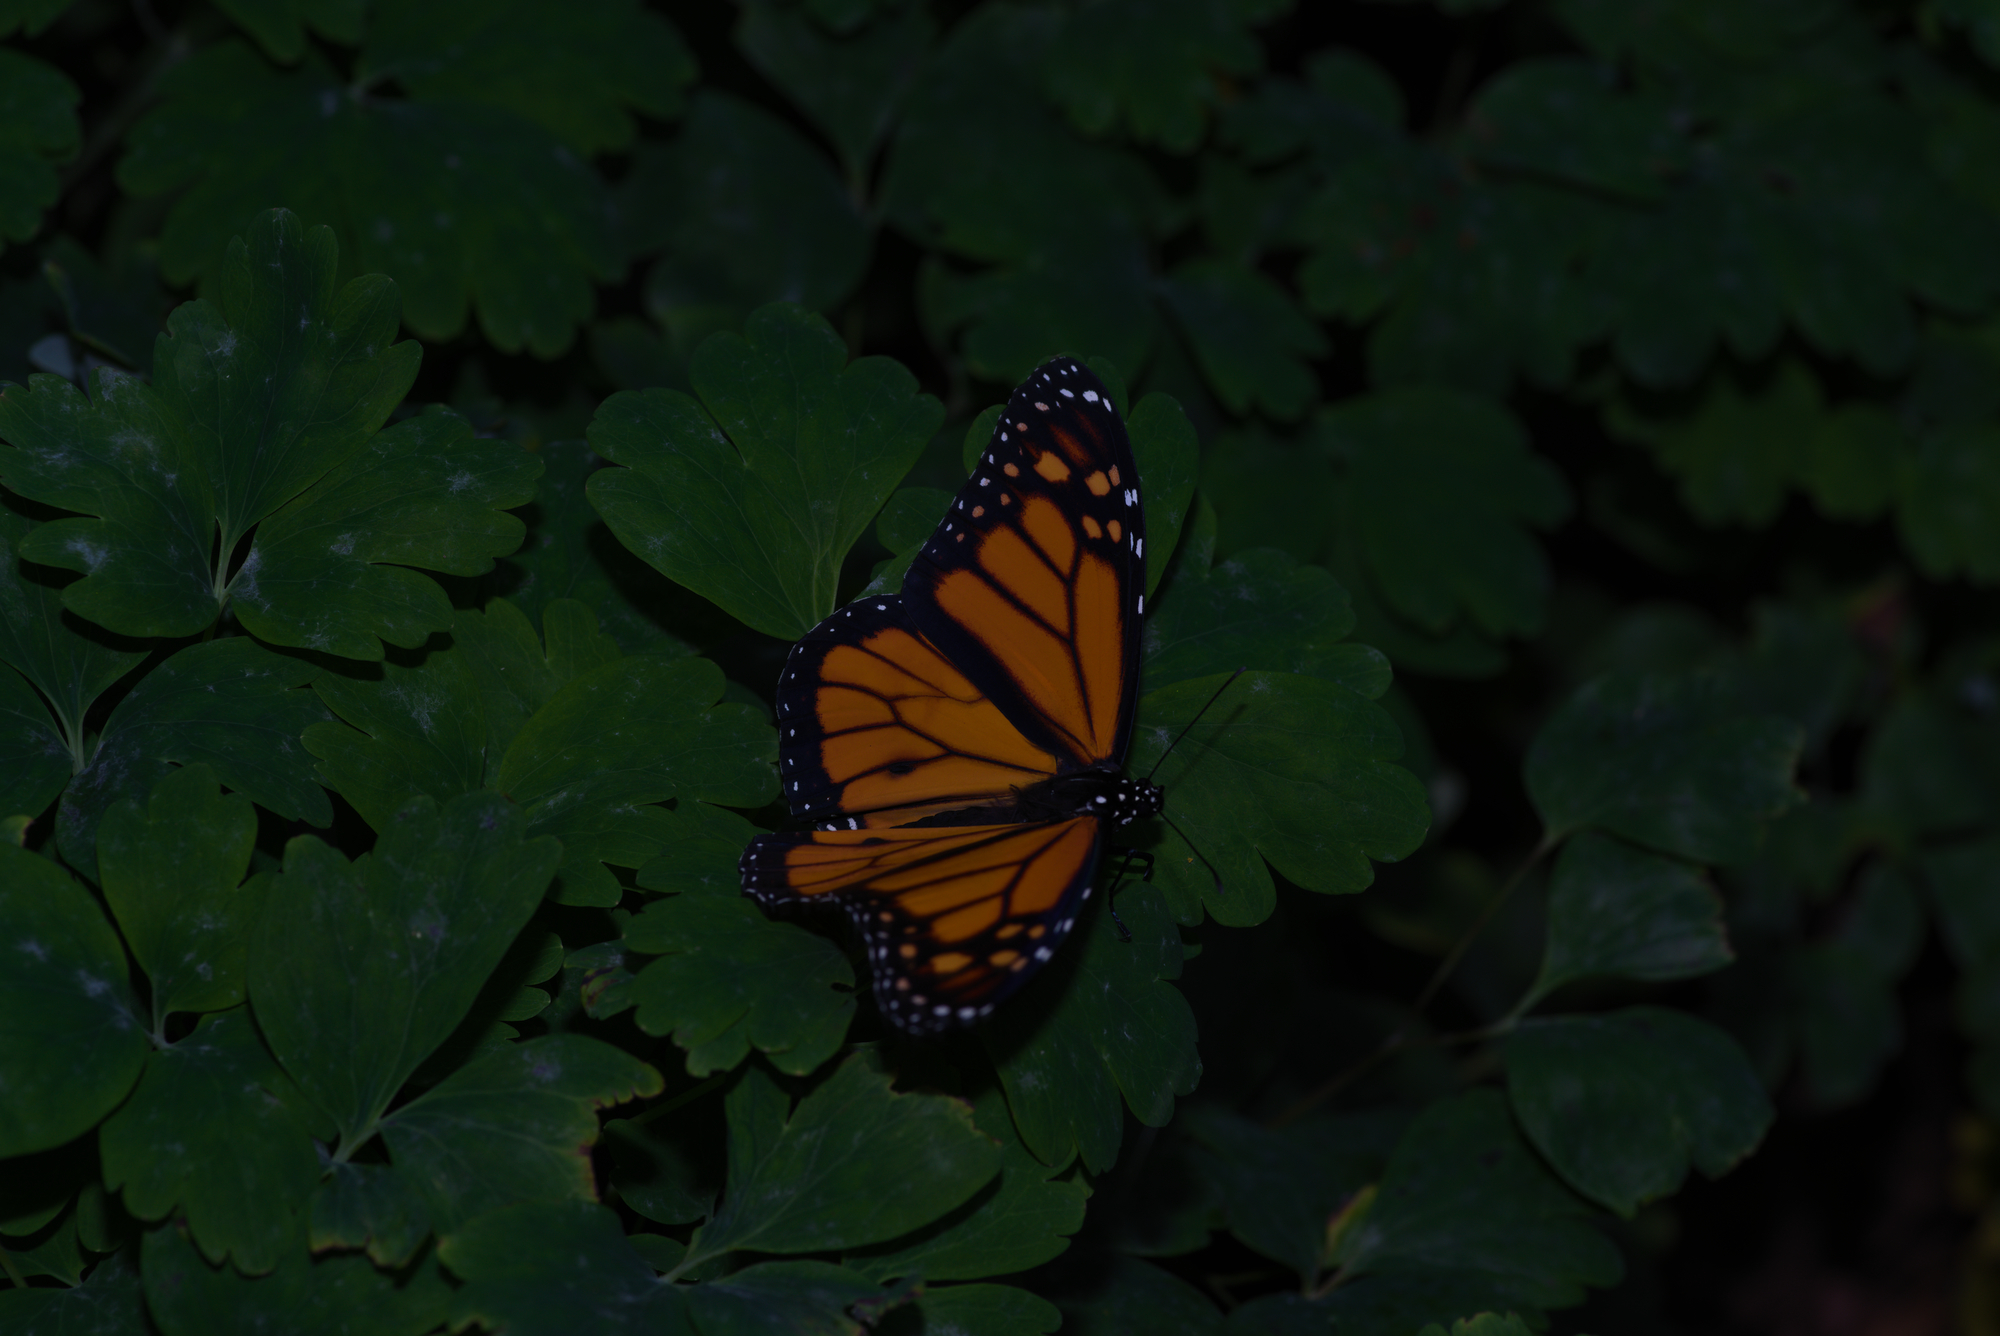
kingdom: Animalia
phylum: Arthropoda
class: Insecta
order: Lepidoptera
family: Nymphalidae
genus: Danaus
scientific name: Danaus plexippus
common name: Monarch
